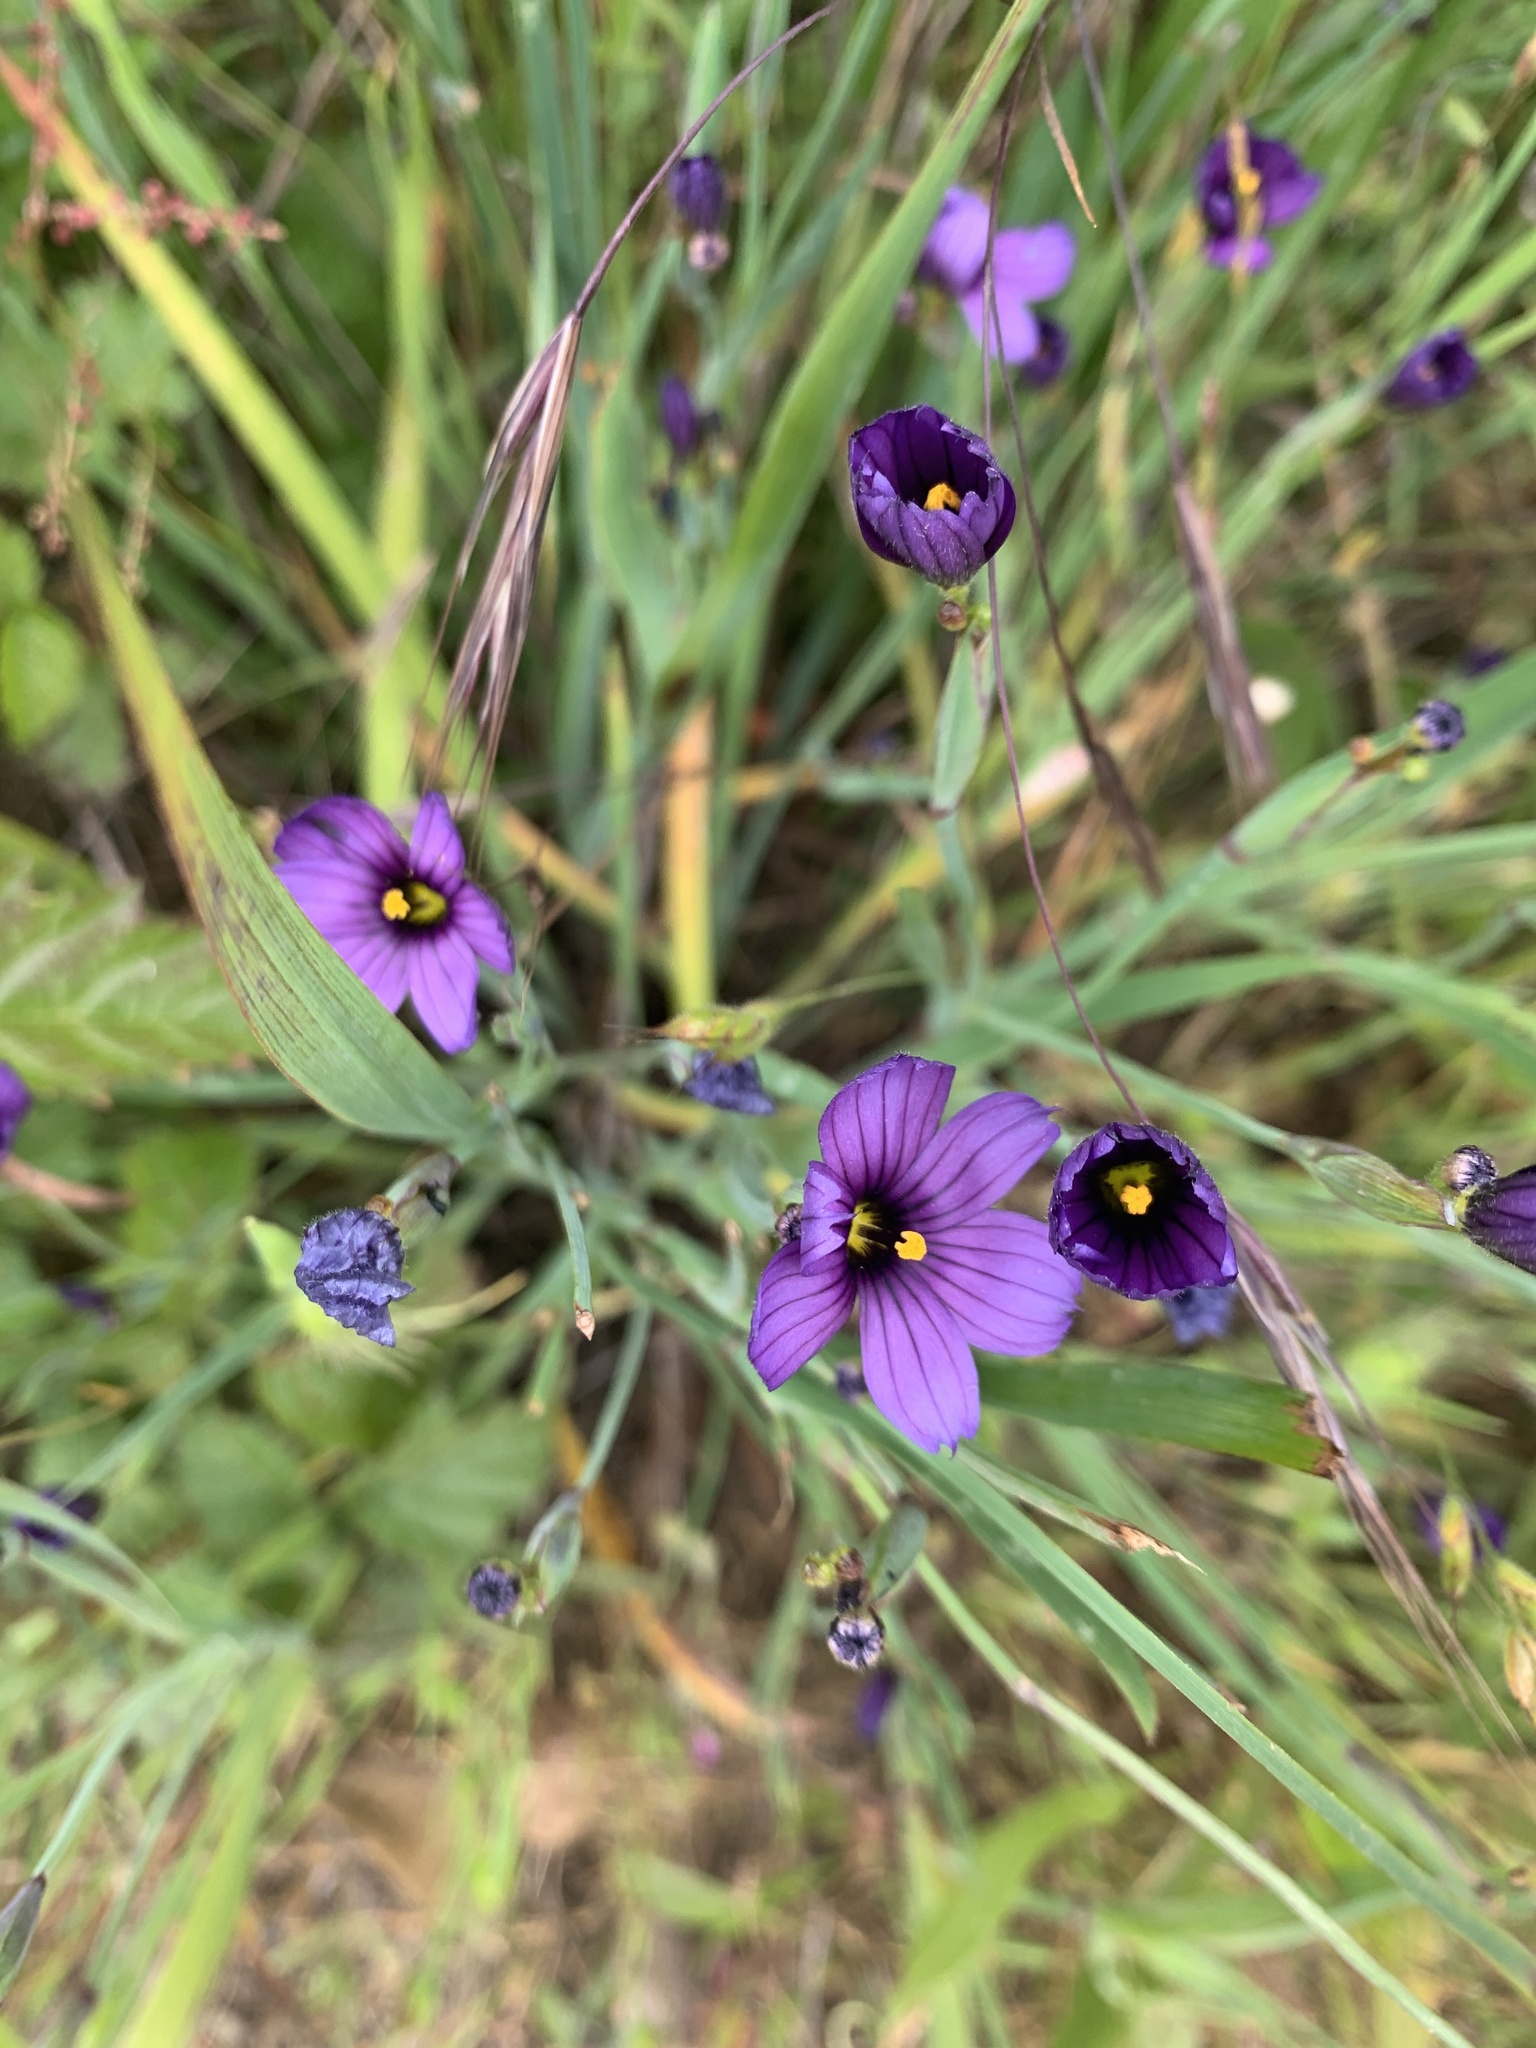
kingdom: Plantae
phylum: Tracheophyta
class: Liliopsida
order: Asparagales
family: Iridaceae
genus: Sisyrinchium
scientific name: Sisyrinchium bellum
